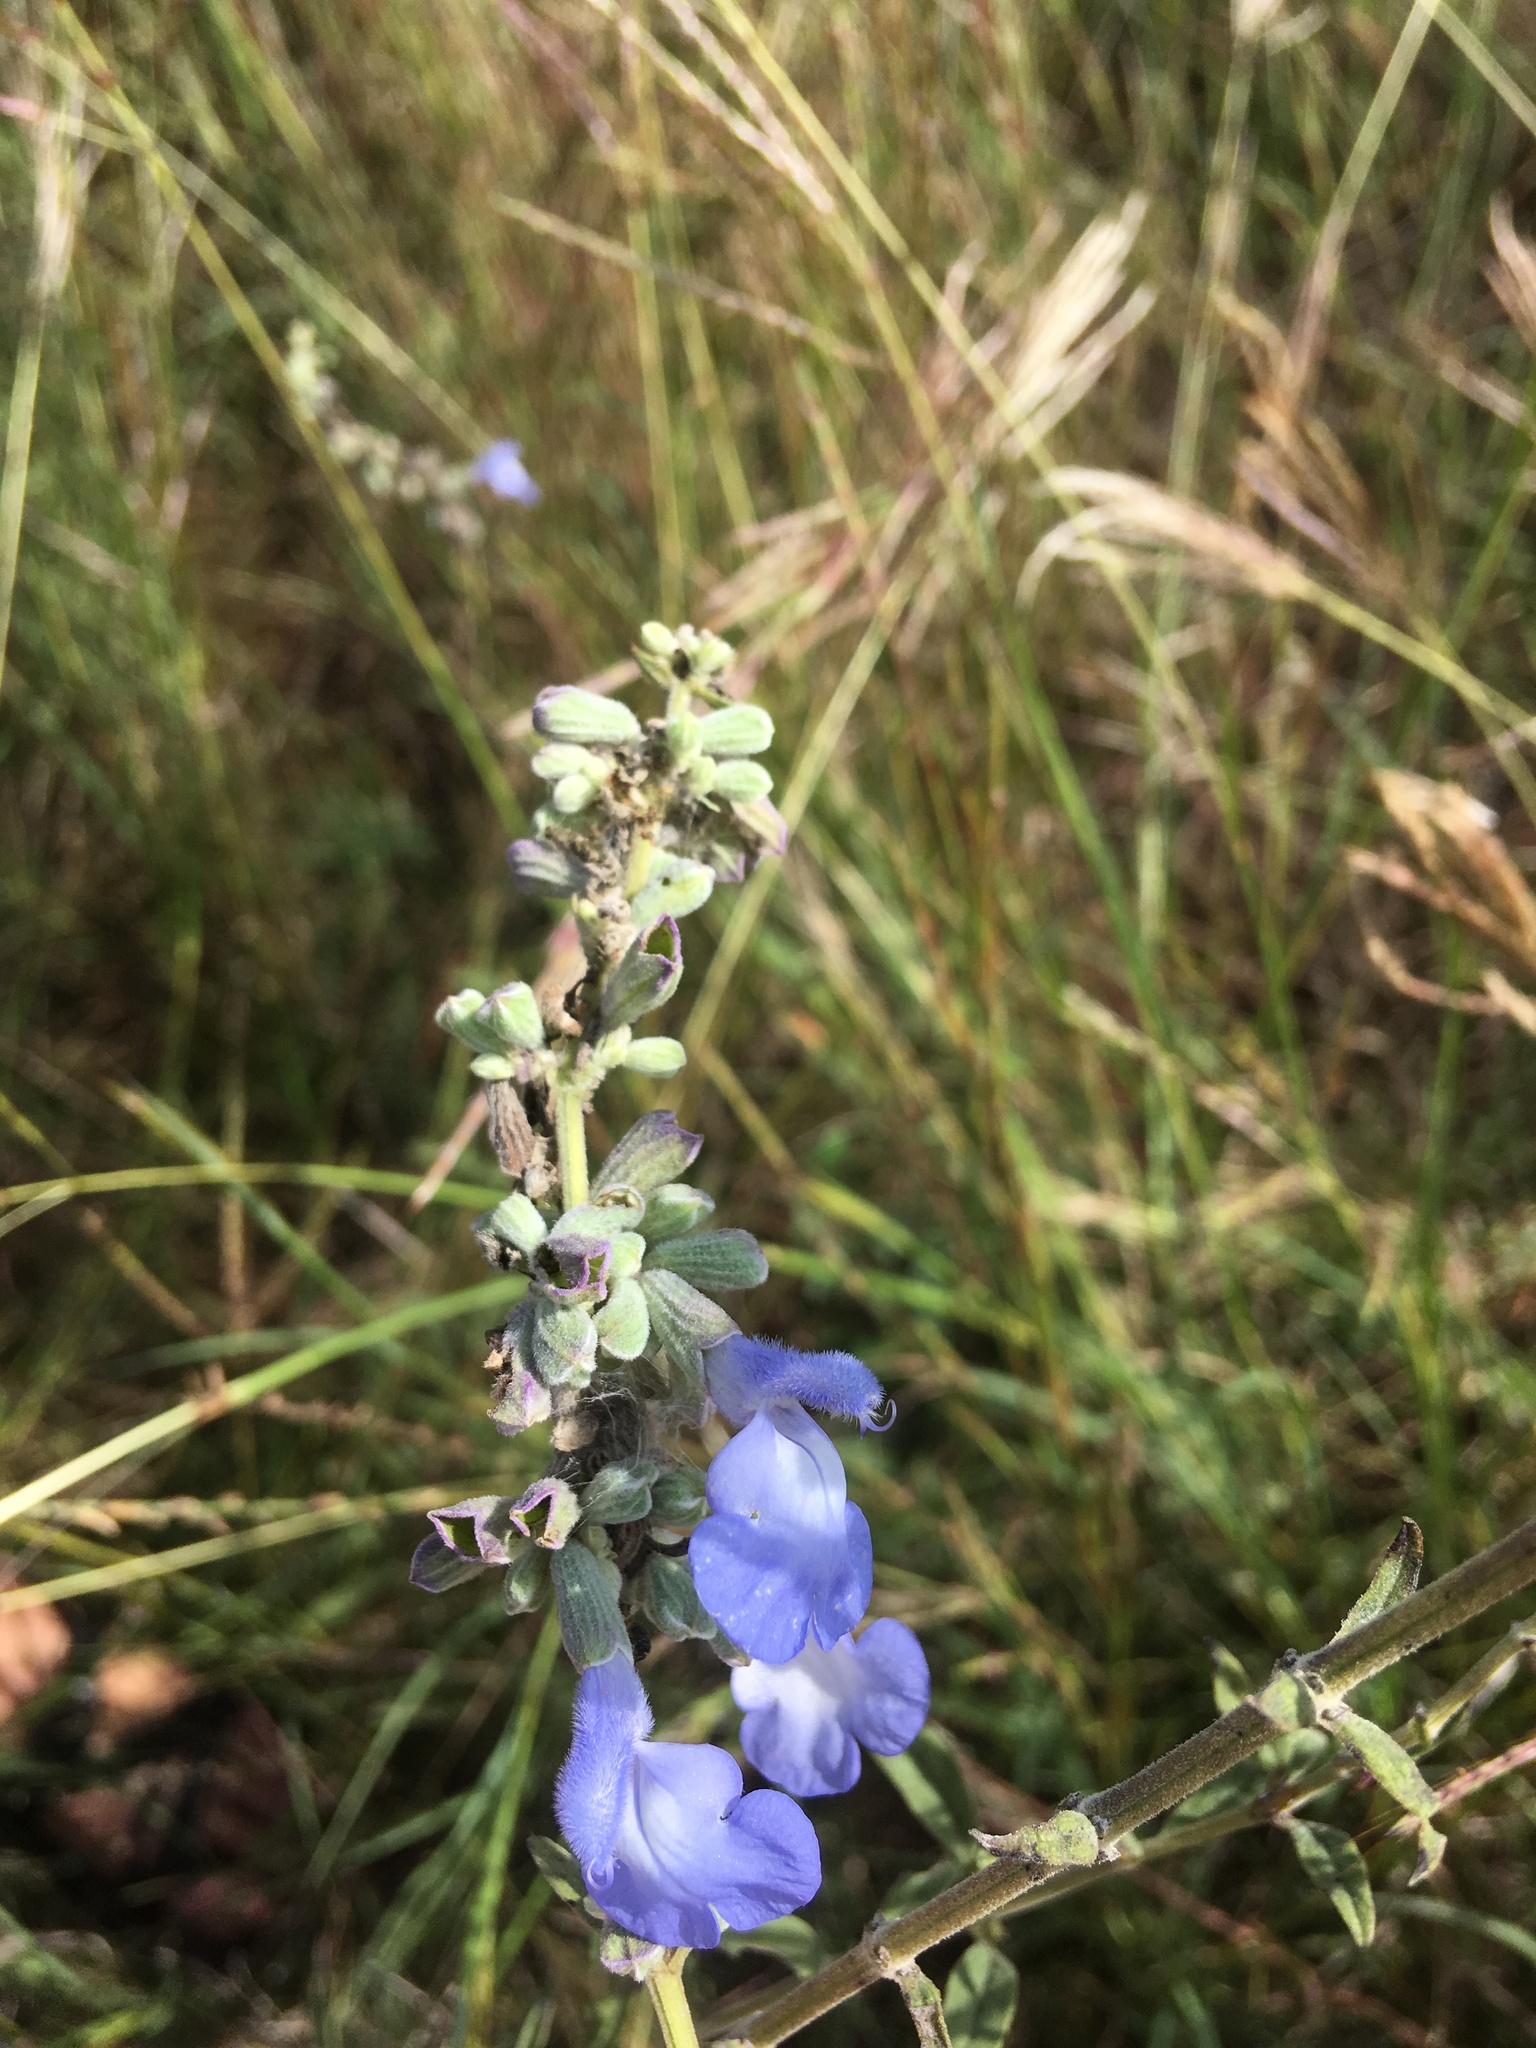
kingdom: Plantae
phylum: Tracheophyta
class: Magnoliopsida
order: Lamiales
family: Lamiaceae
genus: Salvia
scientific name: Salvia azurea
